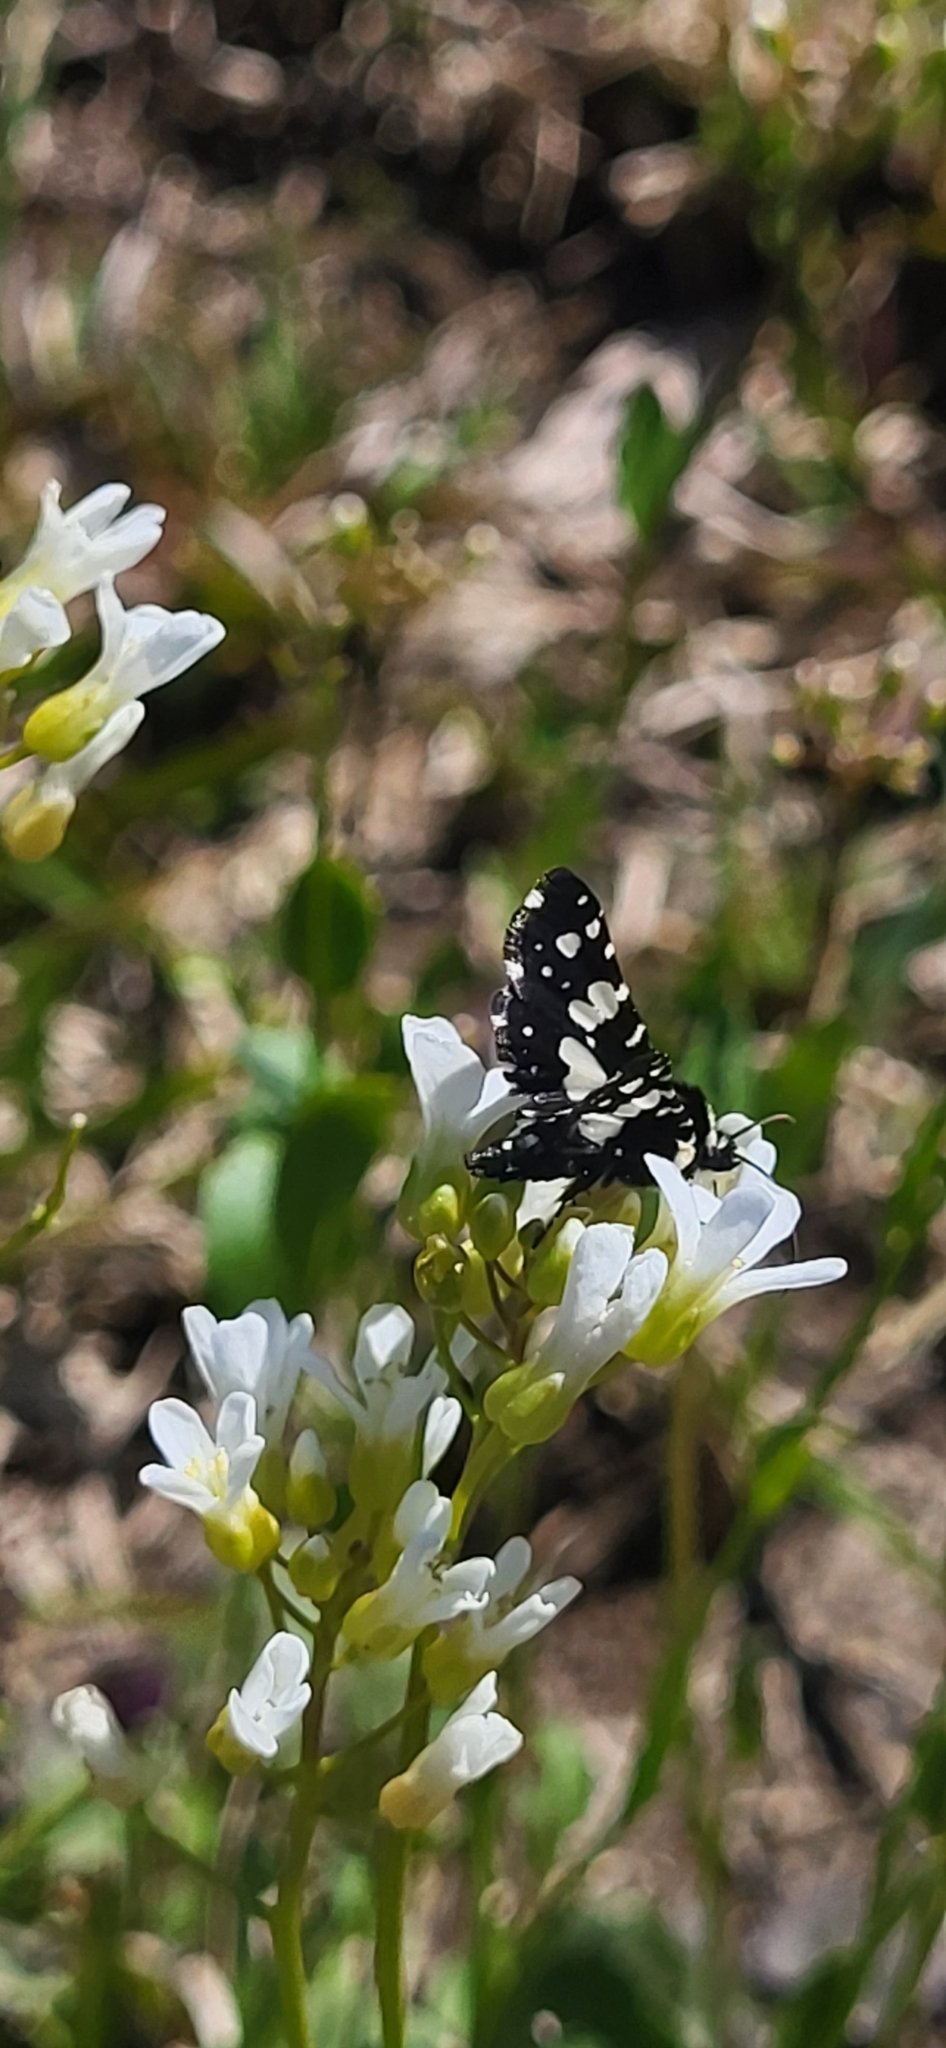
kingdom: Animalia
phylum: Arthropoda
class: Insecta
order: Lepidoptera
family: Thyrididae
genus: Pseudothyris
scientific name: Pseudothyris sepulchralis
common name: Mournful thyris moth
